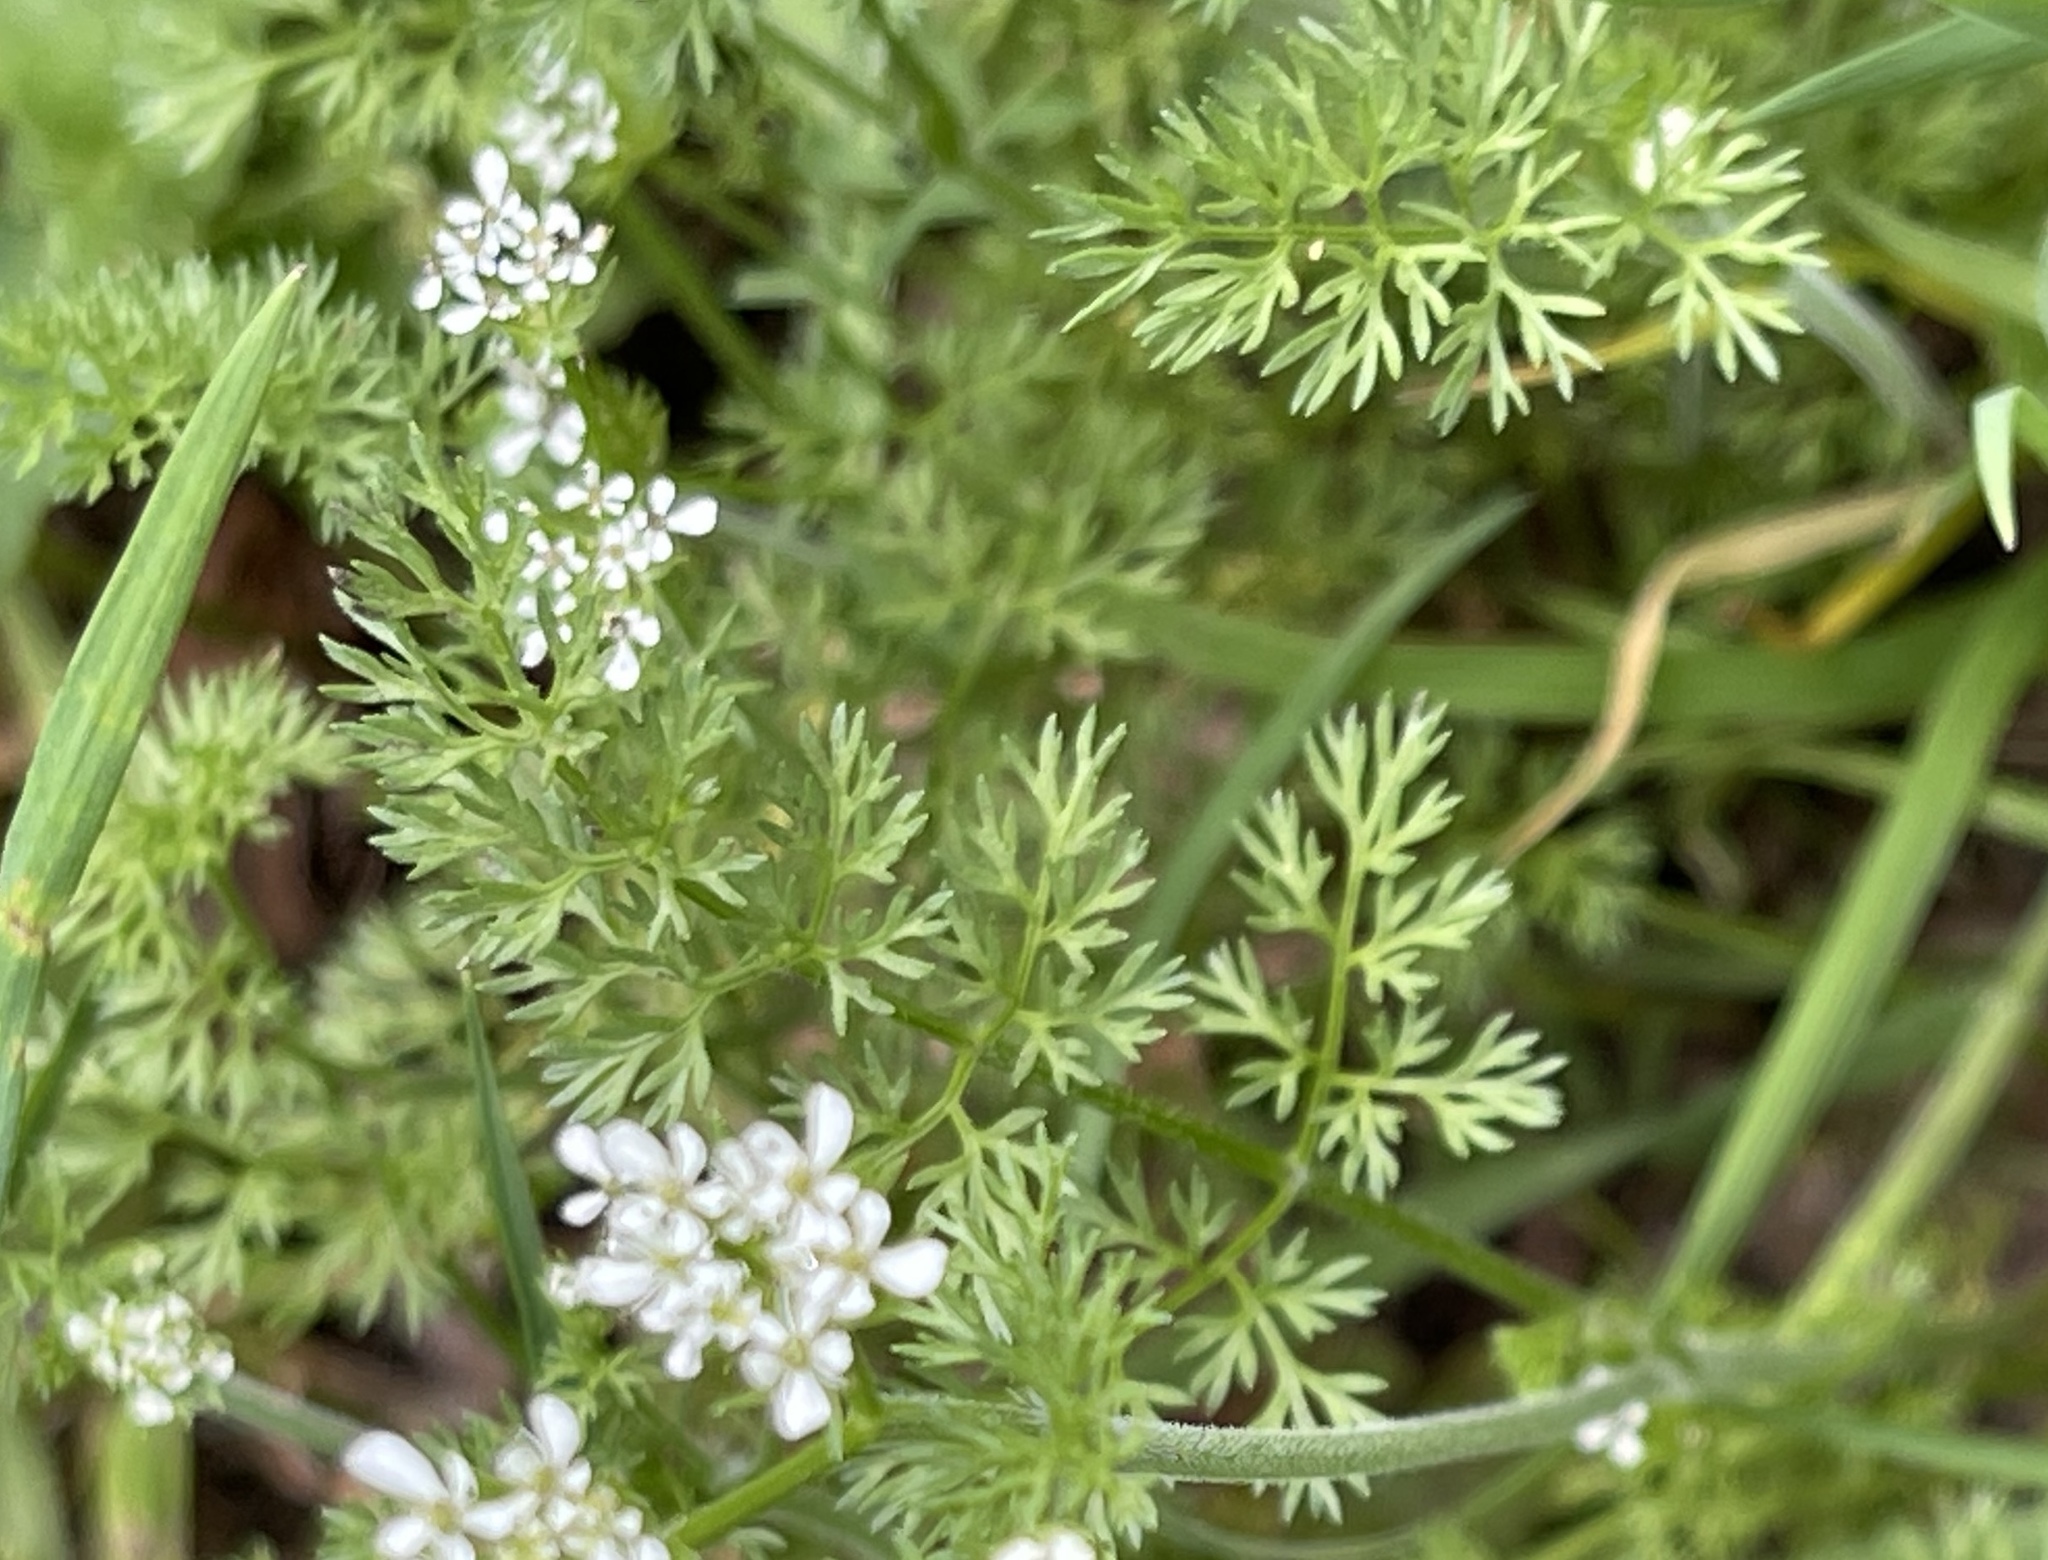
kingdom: Plantae
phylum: Tracheophyta
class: Magnoliopsida
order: Apiales
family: Apiaceae
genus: Scandix
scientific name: Scandix pecten-veneris
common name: Shepherd's-needle
